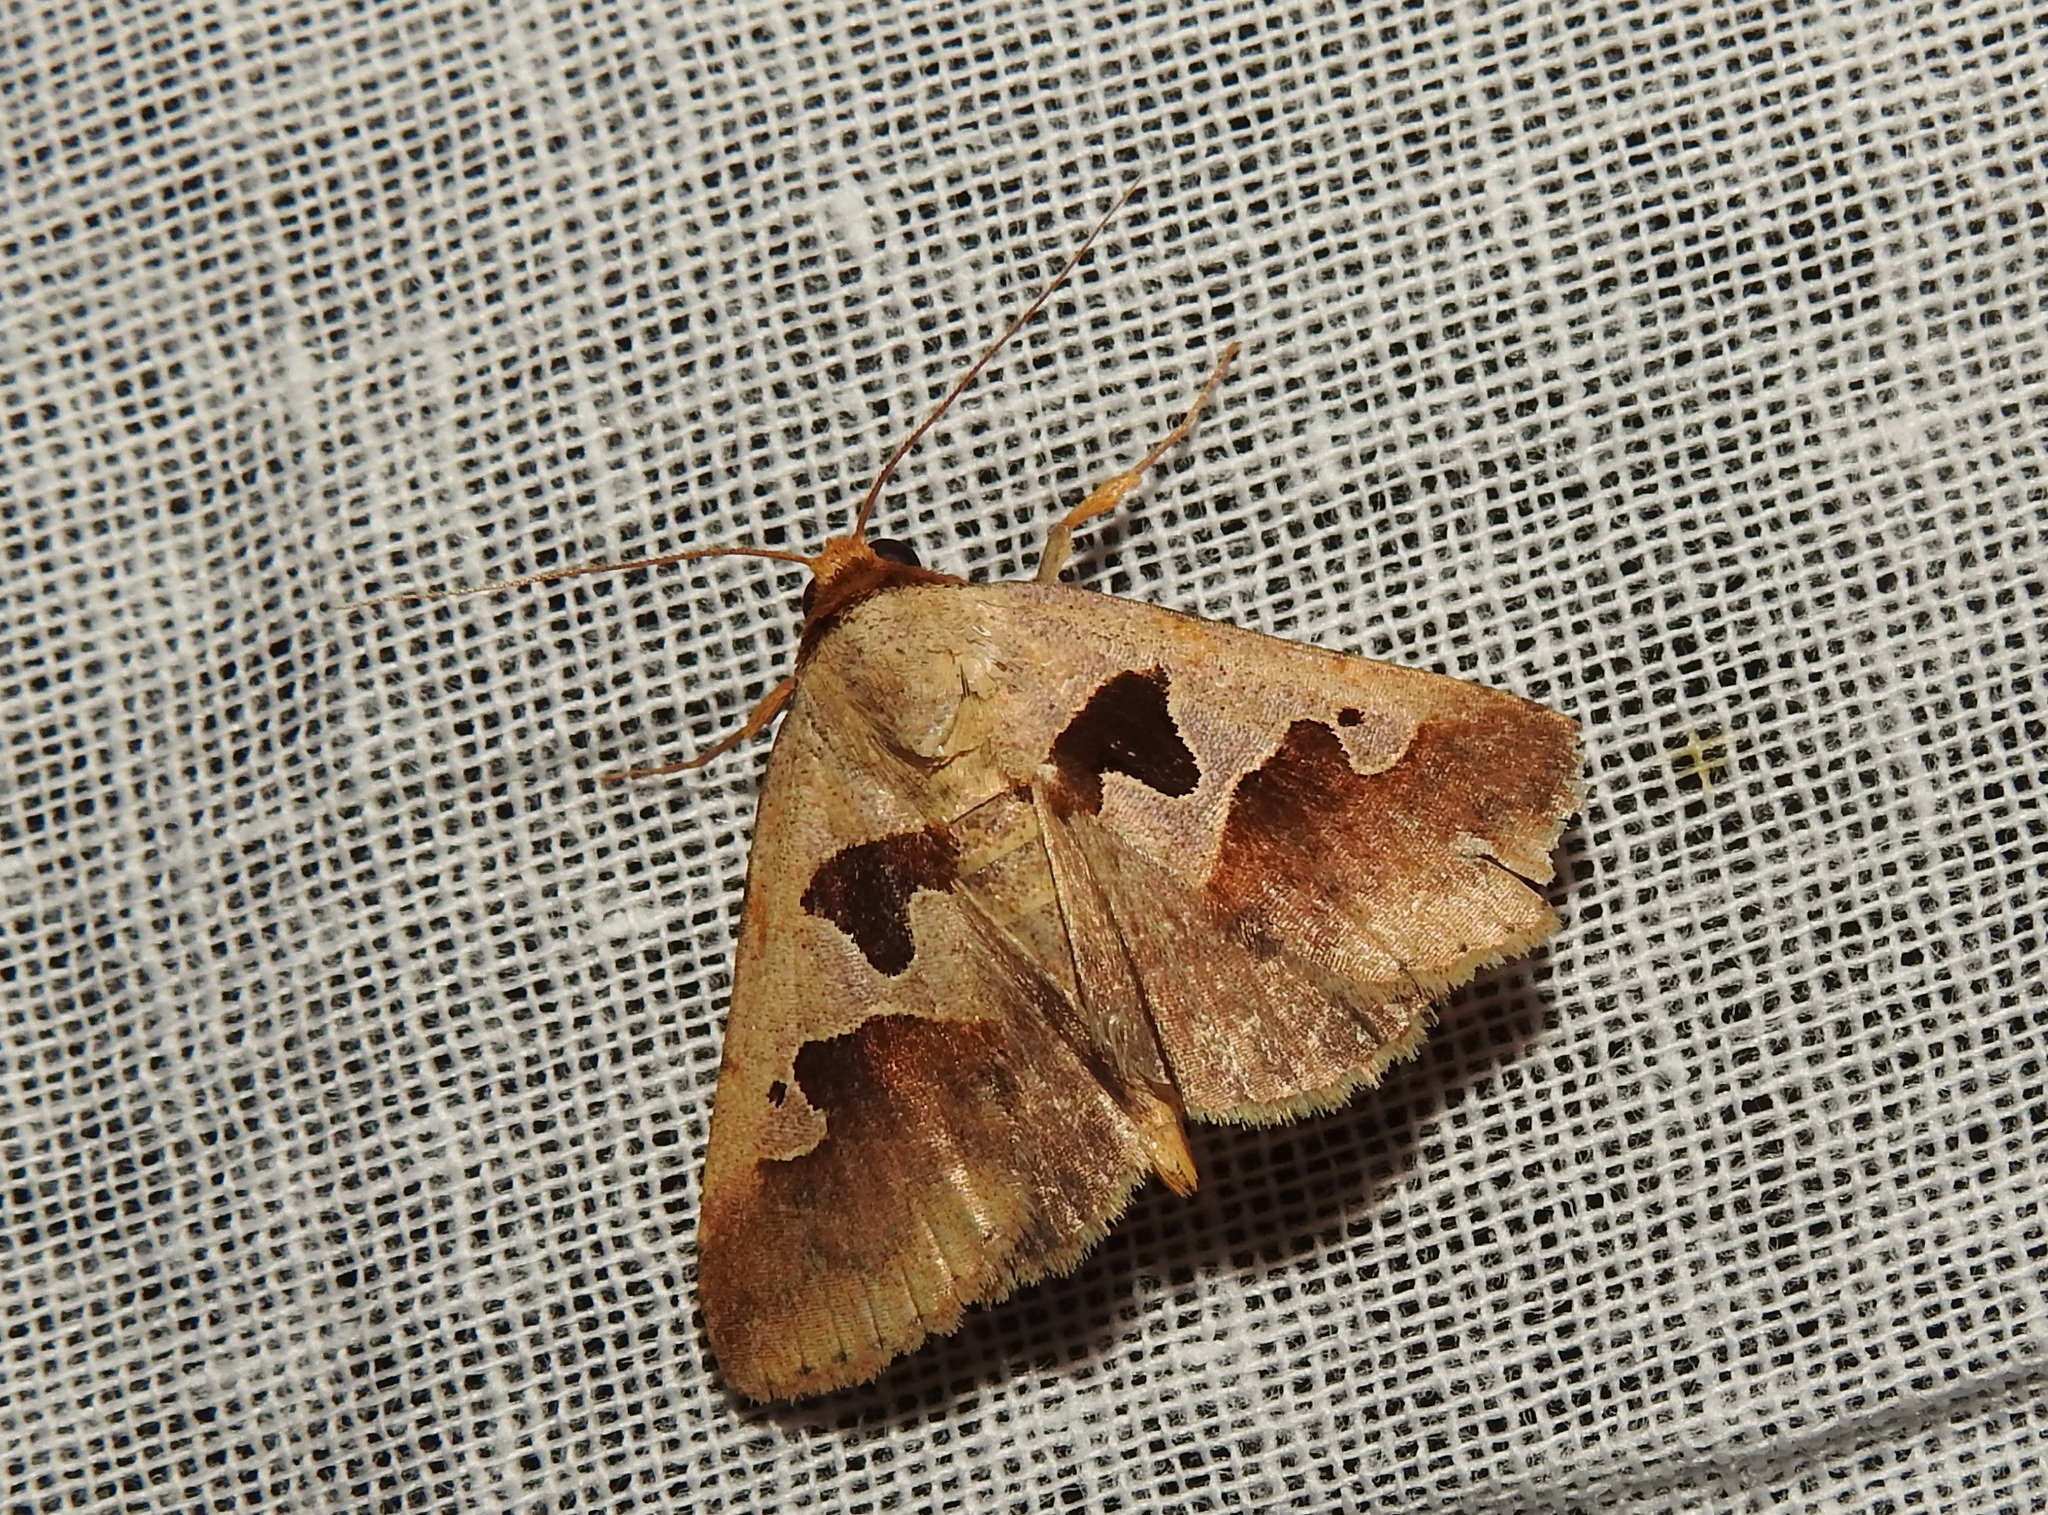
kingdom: Animalia
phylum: Arthropoda
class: Insecta
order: Lepidoptera
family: Erebidae
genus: Crithote
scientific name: Crithote horridipes
